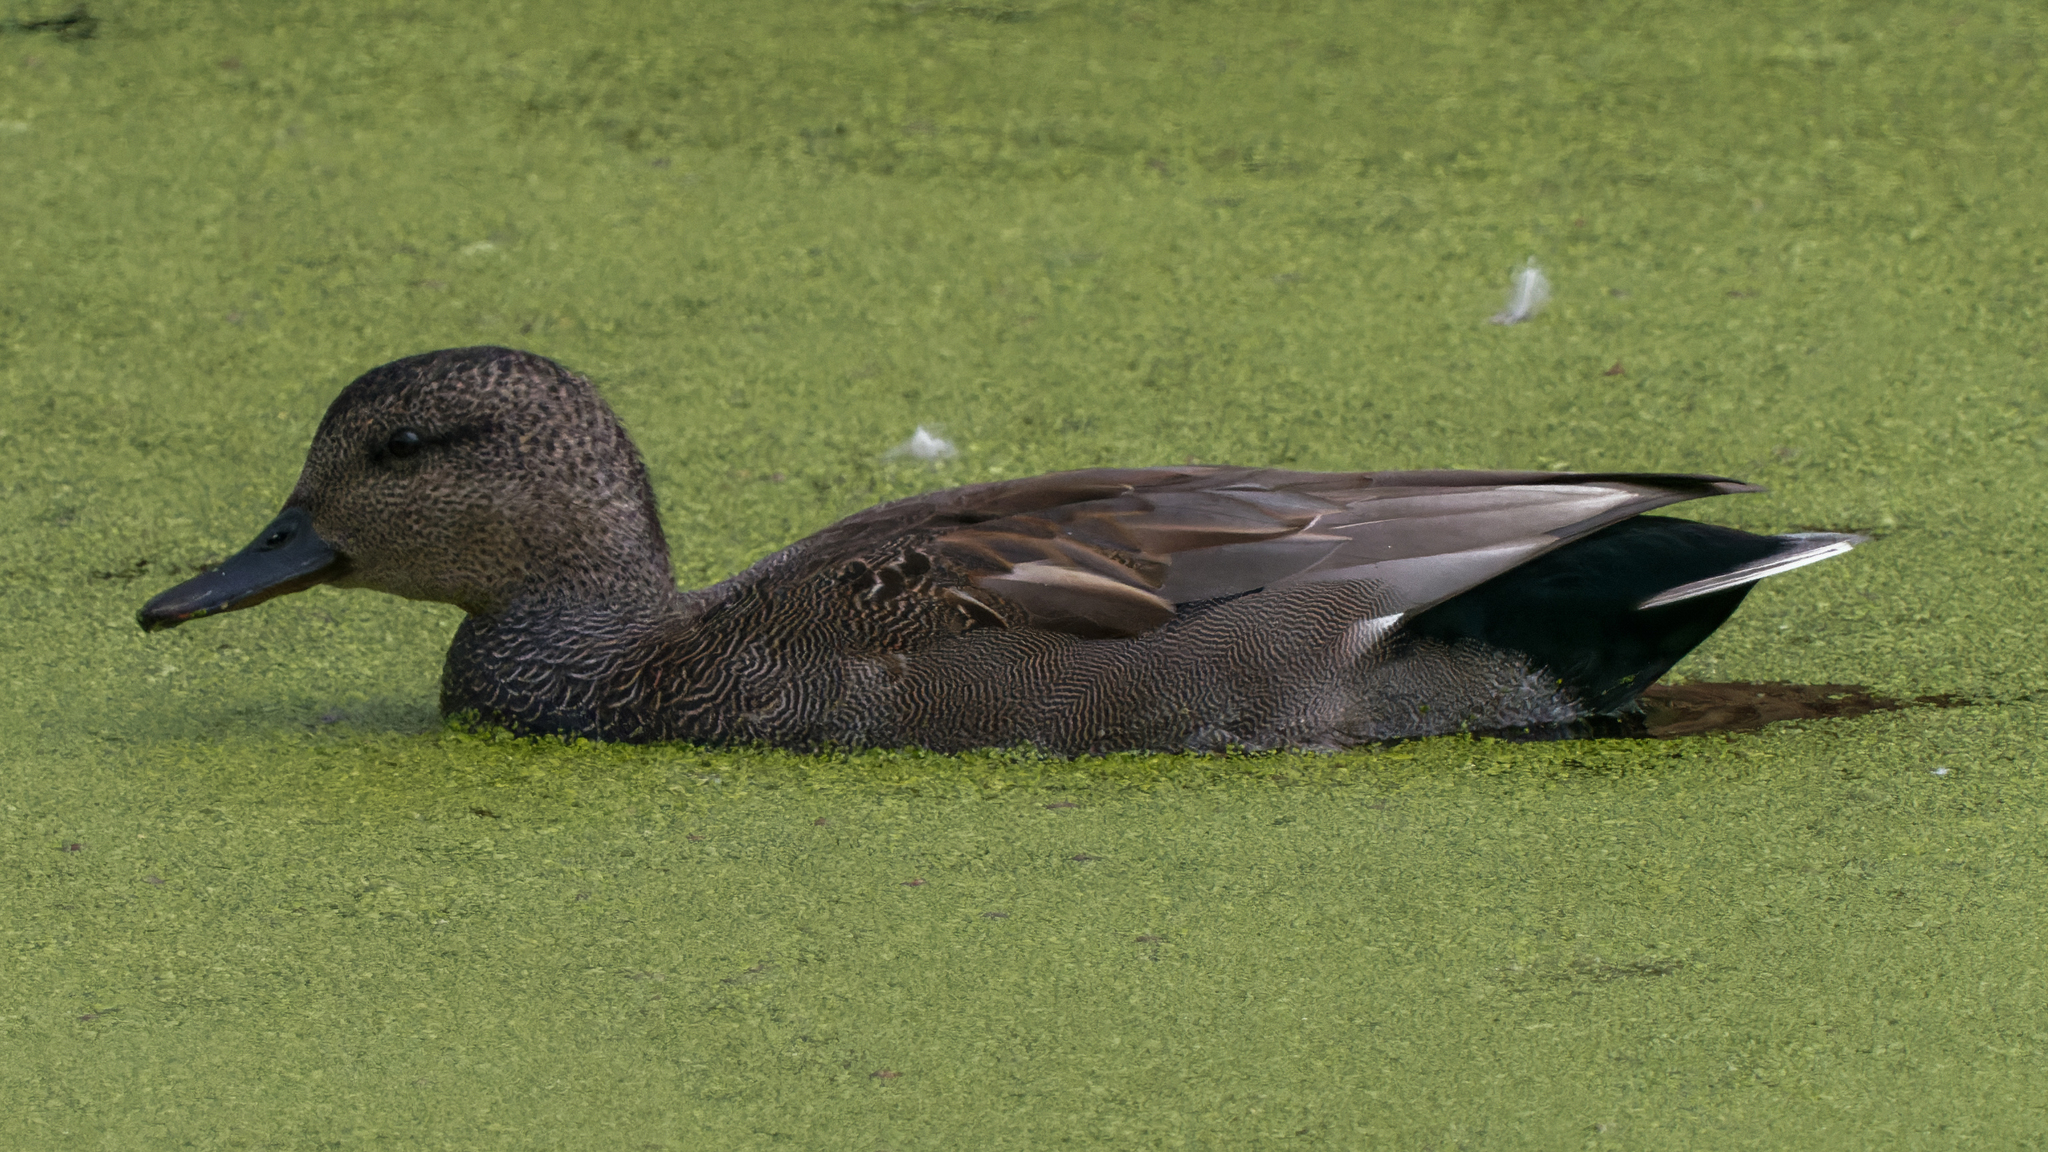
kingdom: Animalia
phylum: Chordata
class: Aves
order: Anseriformes
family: Anatidae
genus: Mareca
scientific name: Mareca strepera
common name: Gadwall
